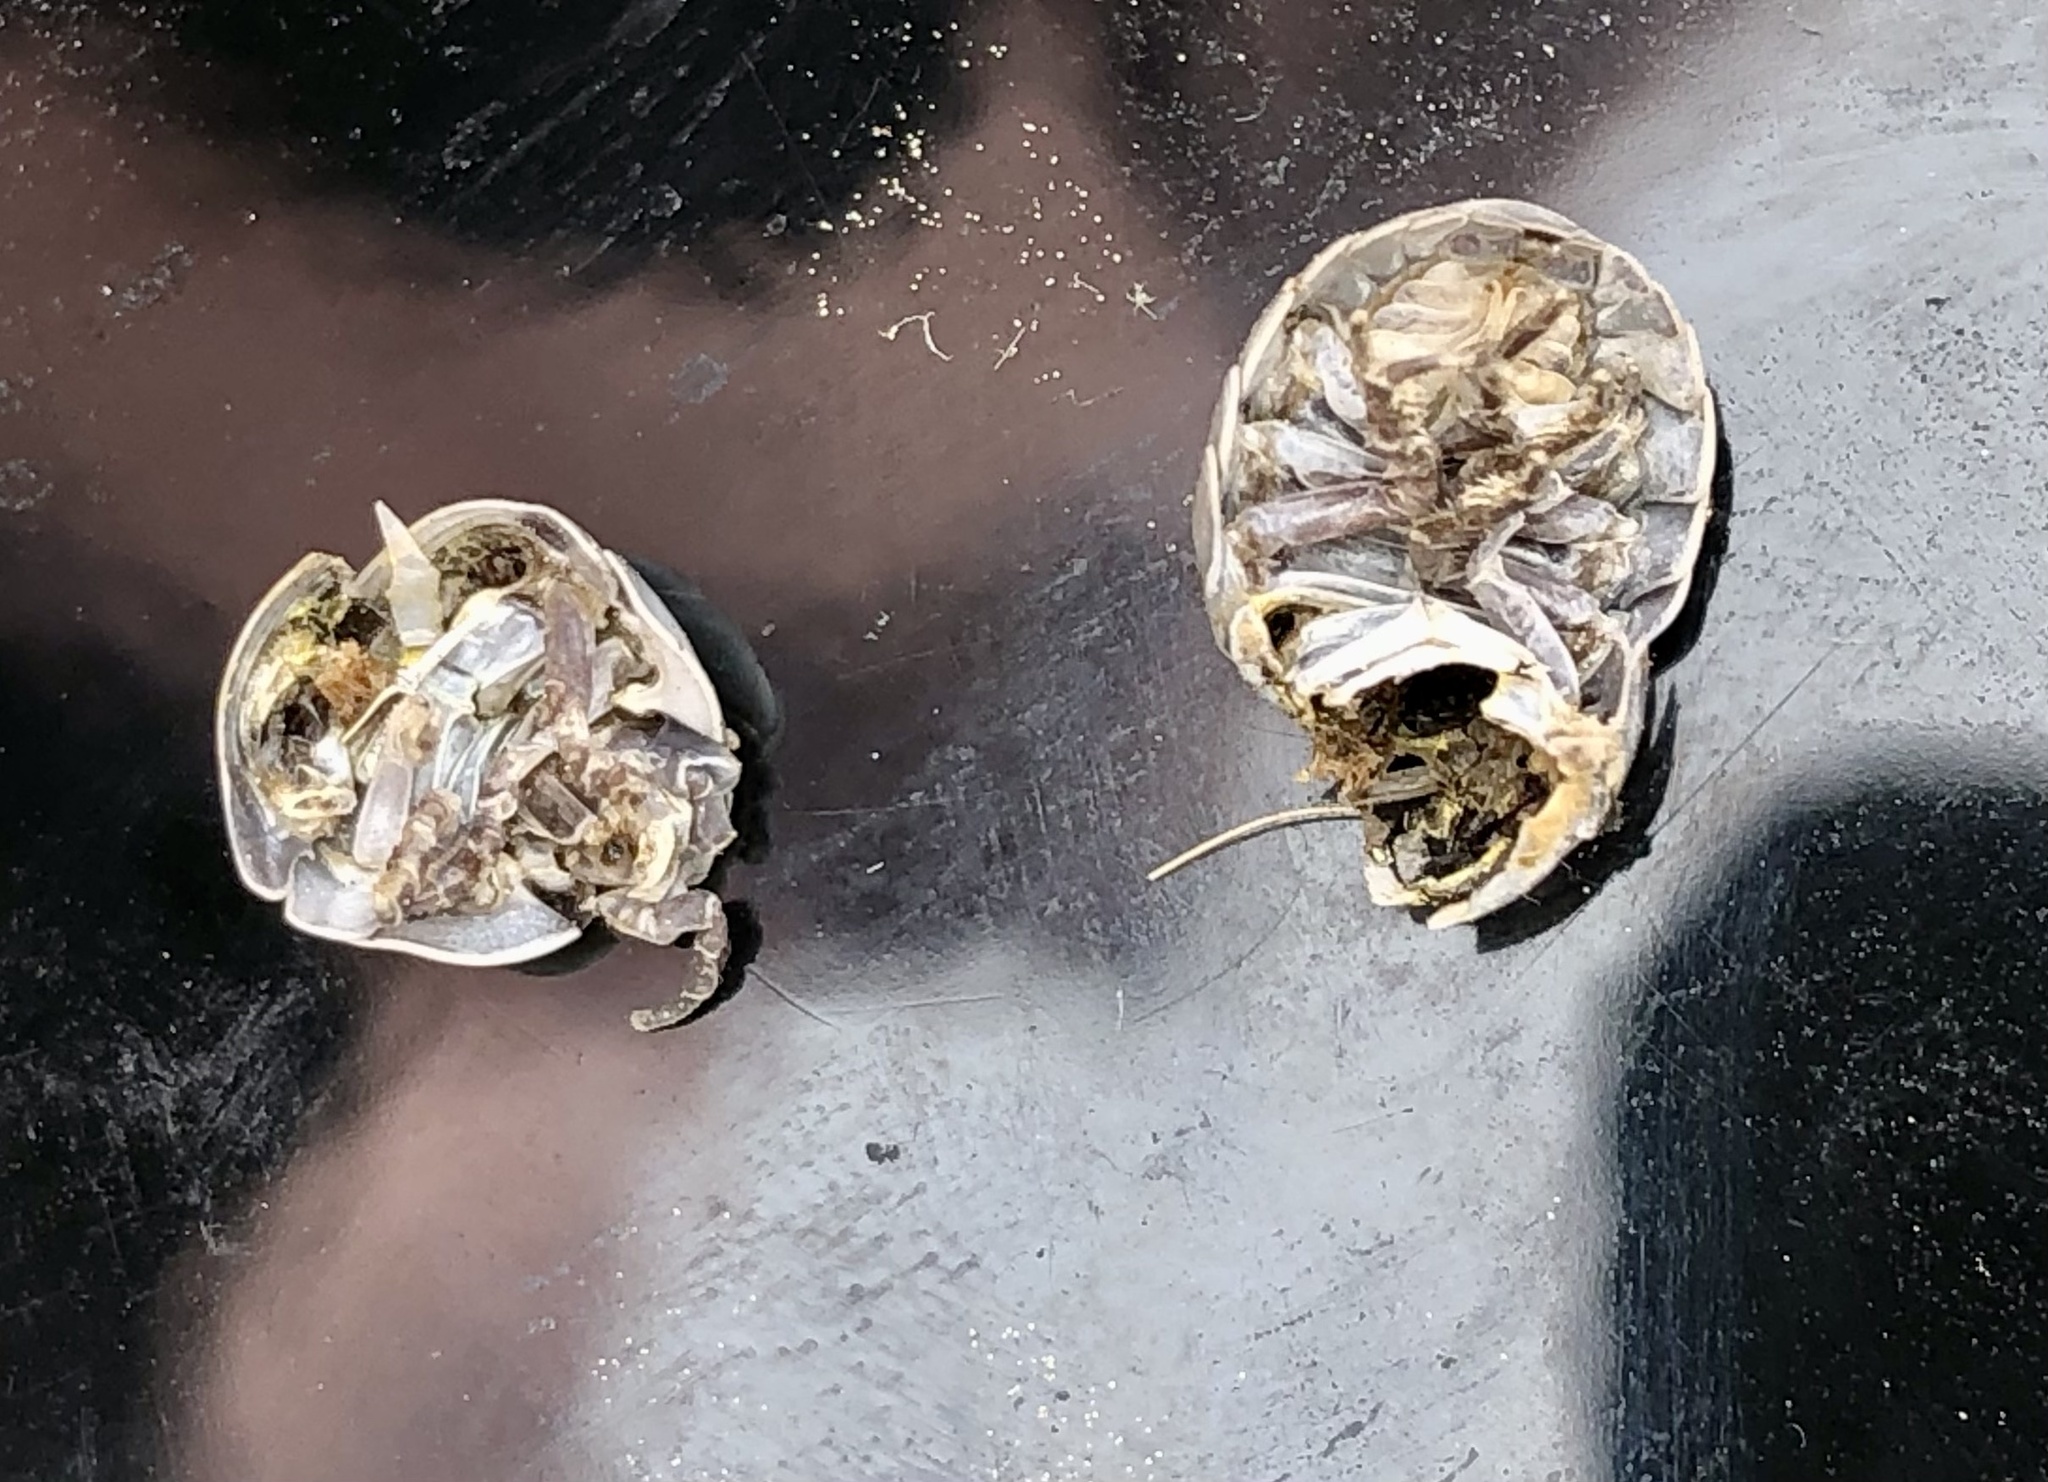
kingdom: Animalia
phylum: Arthropoda
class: Malacostraca
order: Isopoda
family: Armadillidiidae
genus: Armadillidium
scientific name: Armadillidium vulgare
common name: Common pill woodlouse
